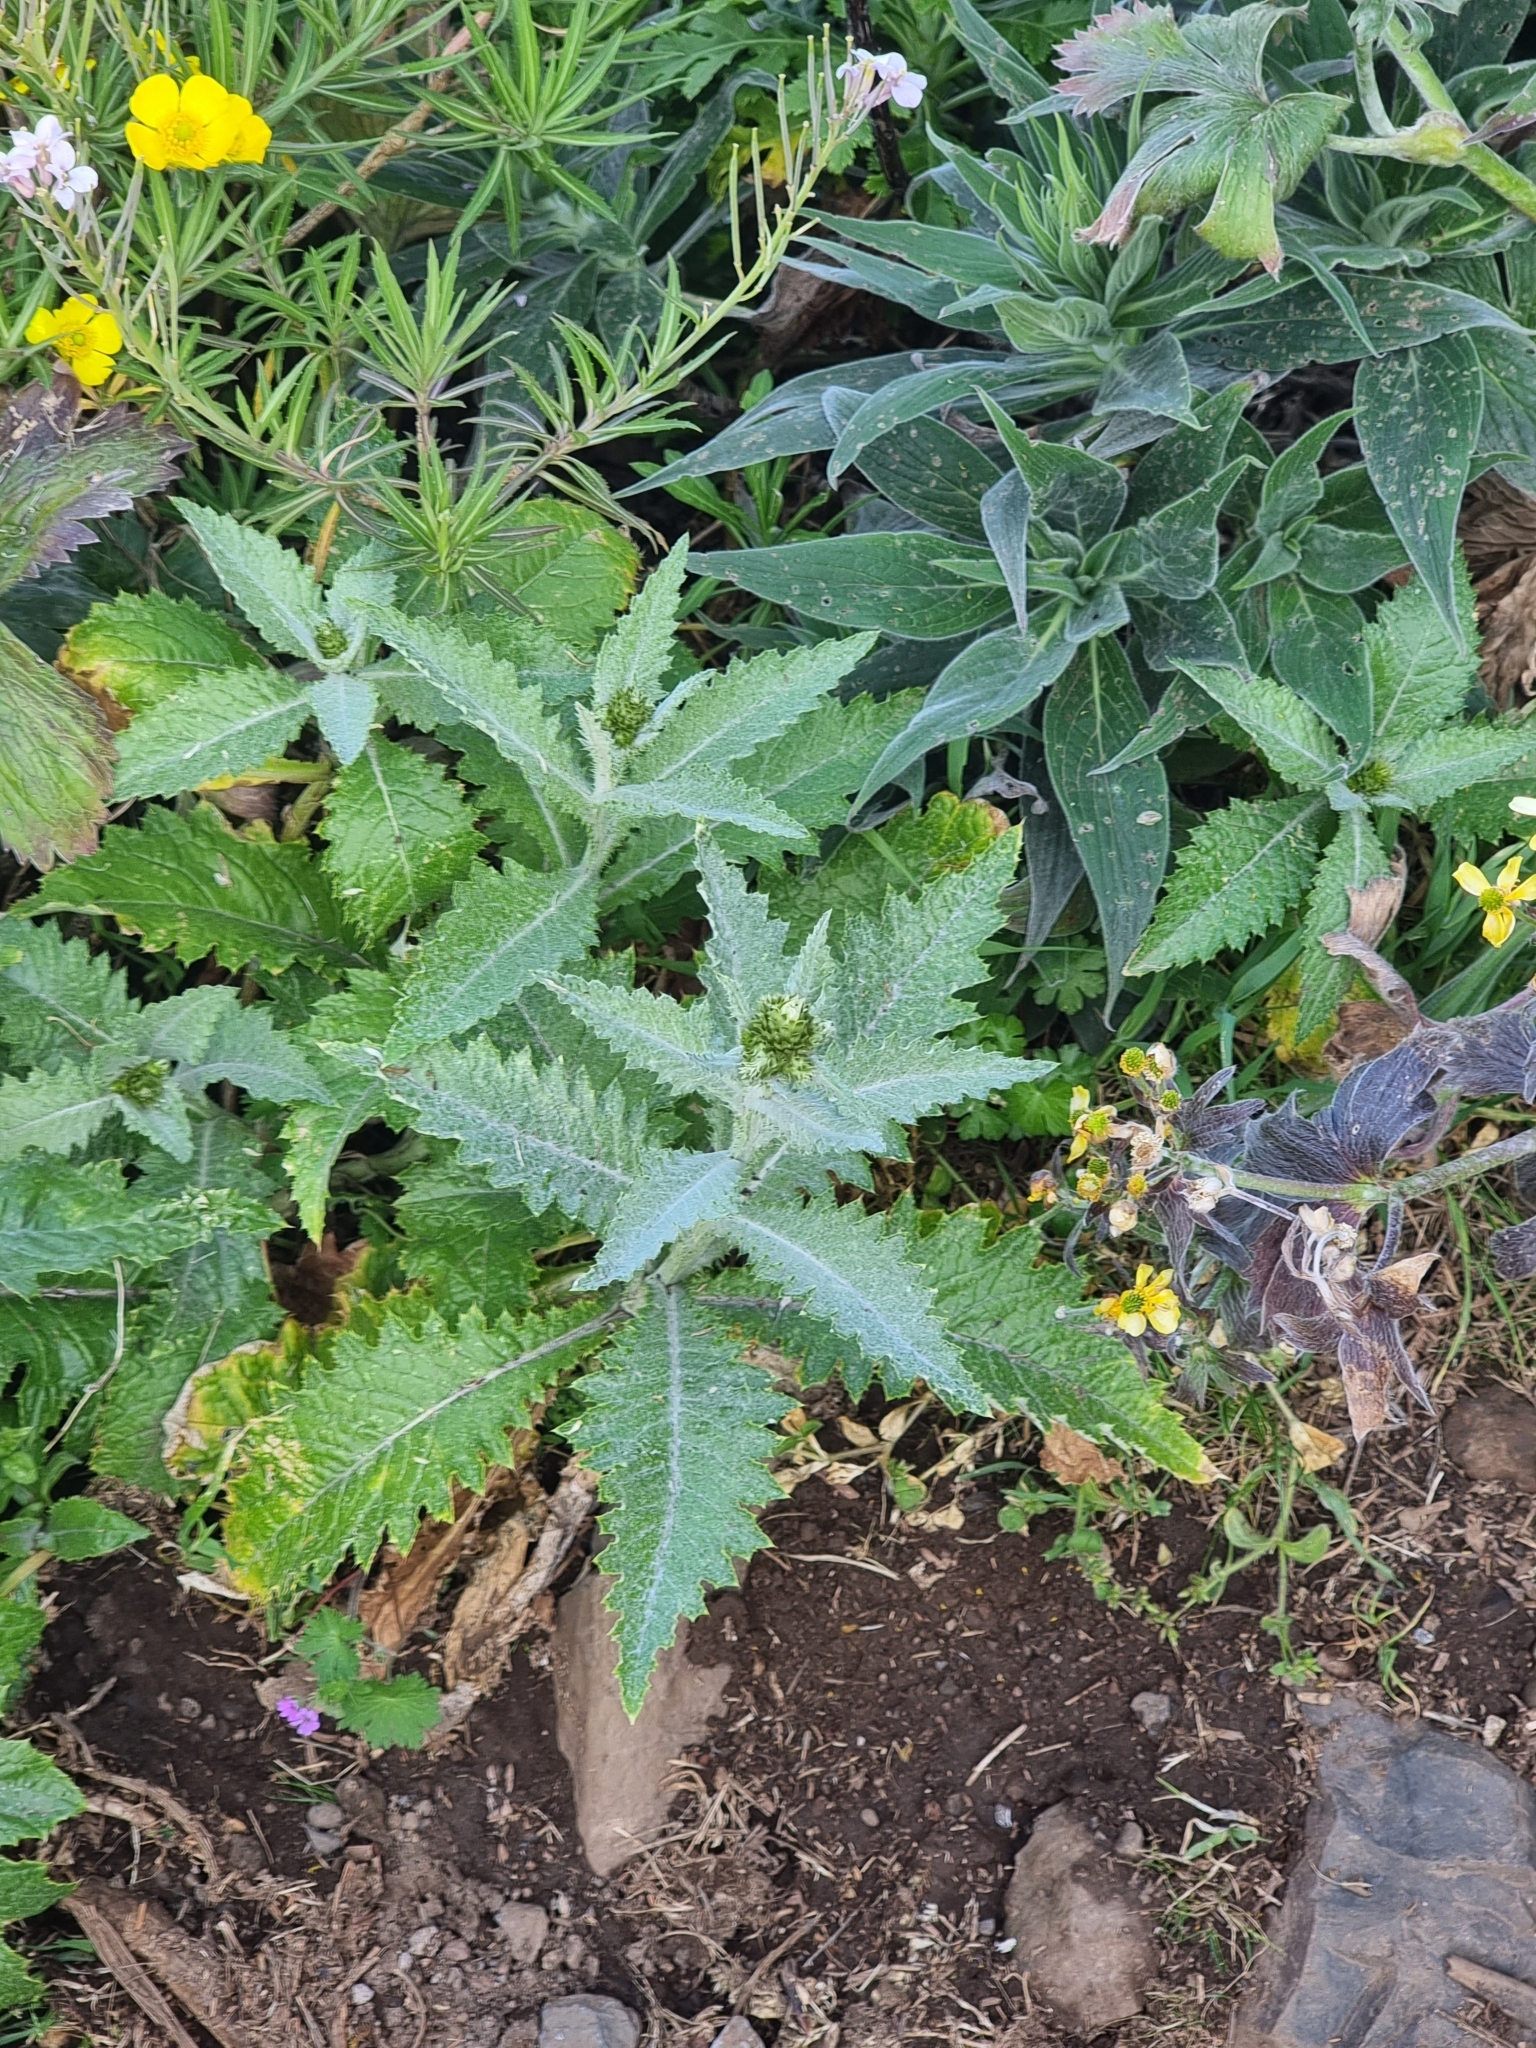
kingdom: Plantae
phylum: Tracheophyta
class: Magnoliopsida
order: Asterales
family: Asteraceae
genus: Carduus
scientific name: Carduus squarrosus
